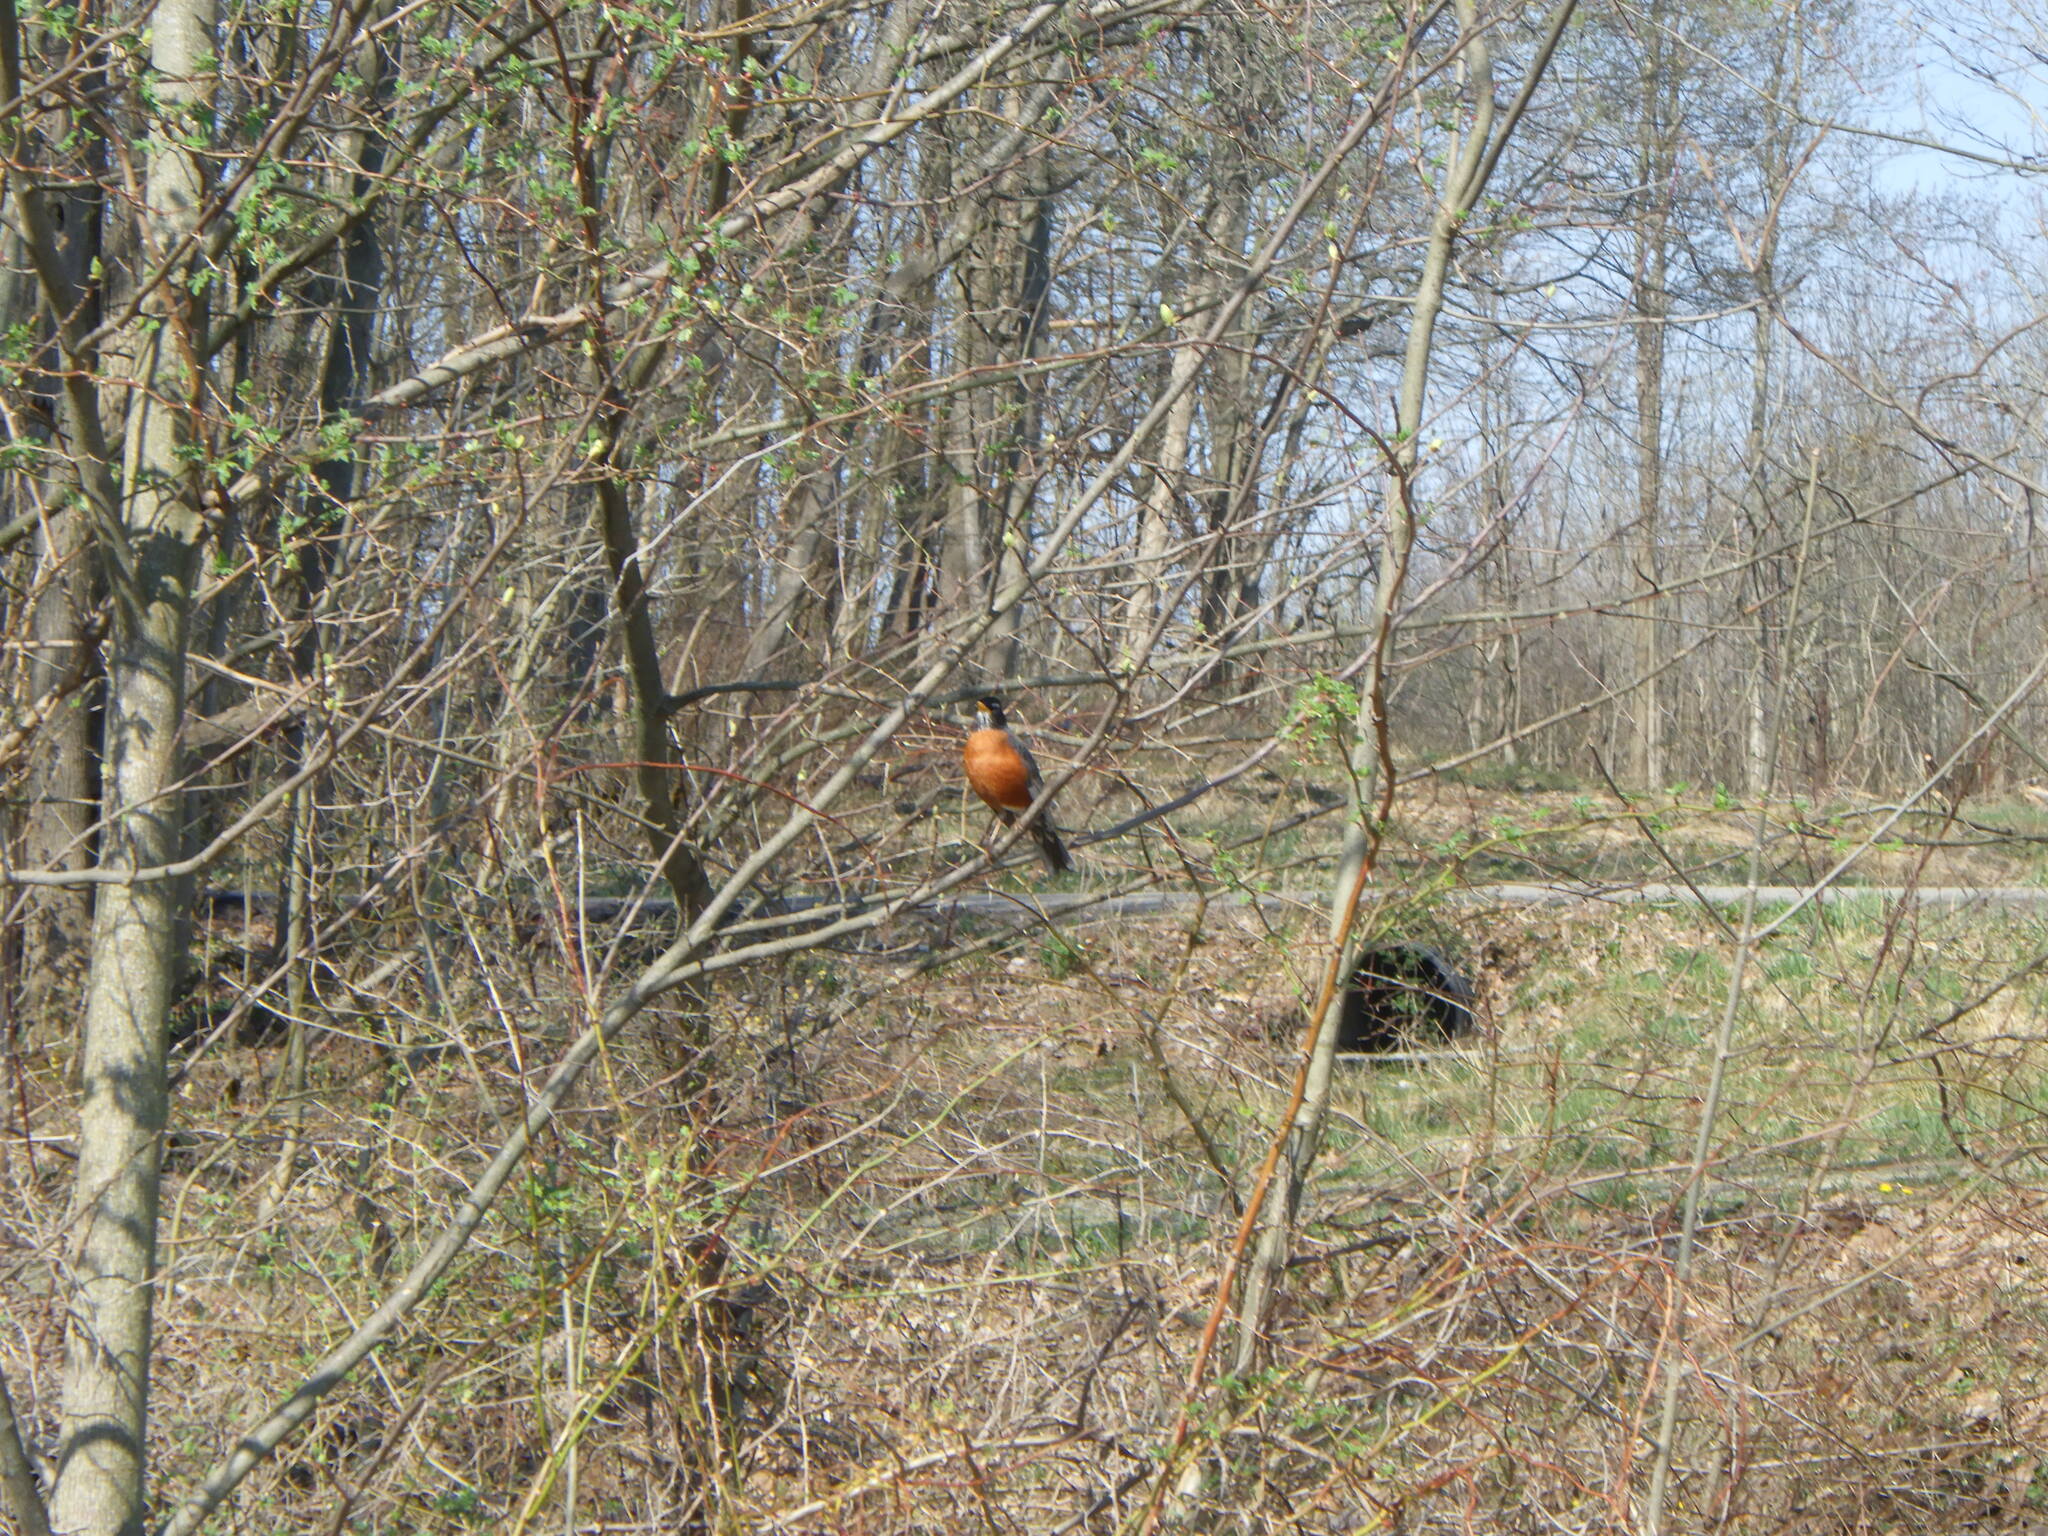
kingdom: Animalia
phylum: Chordata
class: Aves
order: Passeriformes
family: Turdidae
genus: Turdus
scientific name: Turdus migratorius
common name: American robin
